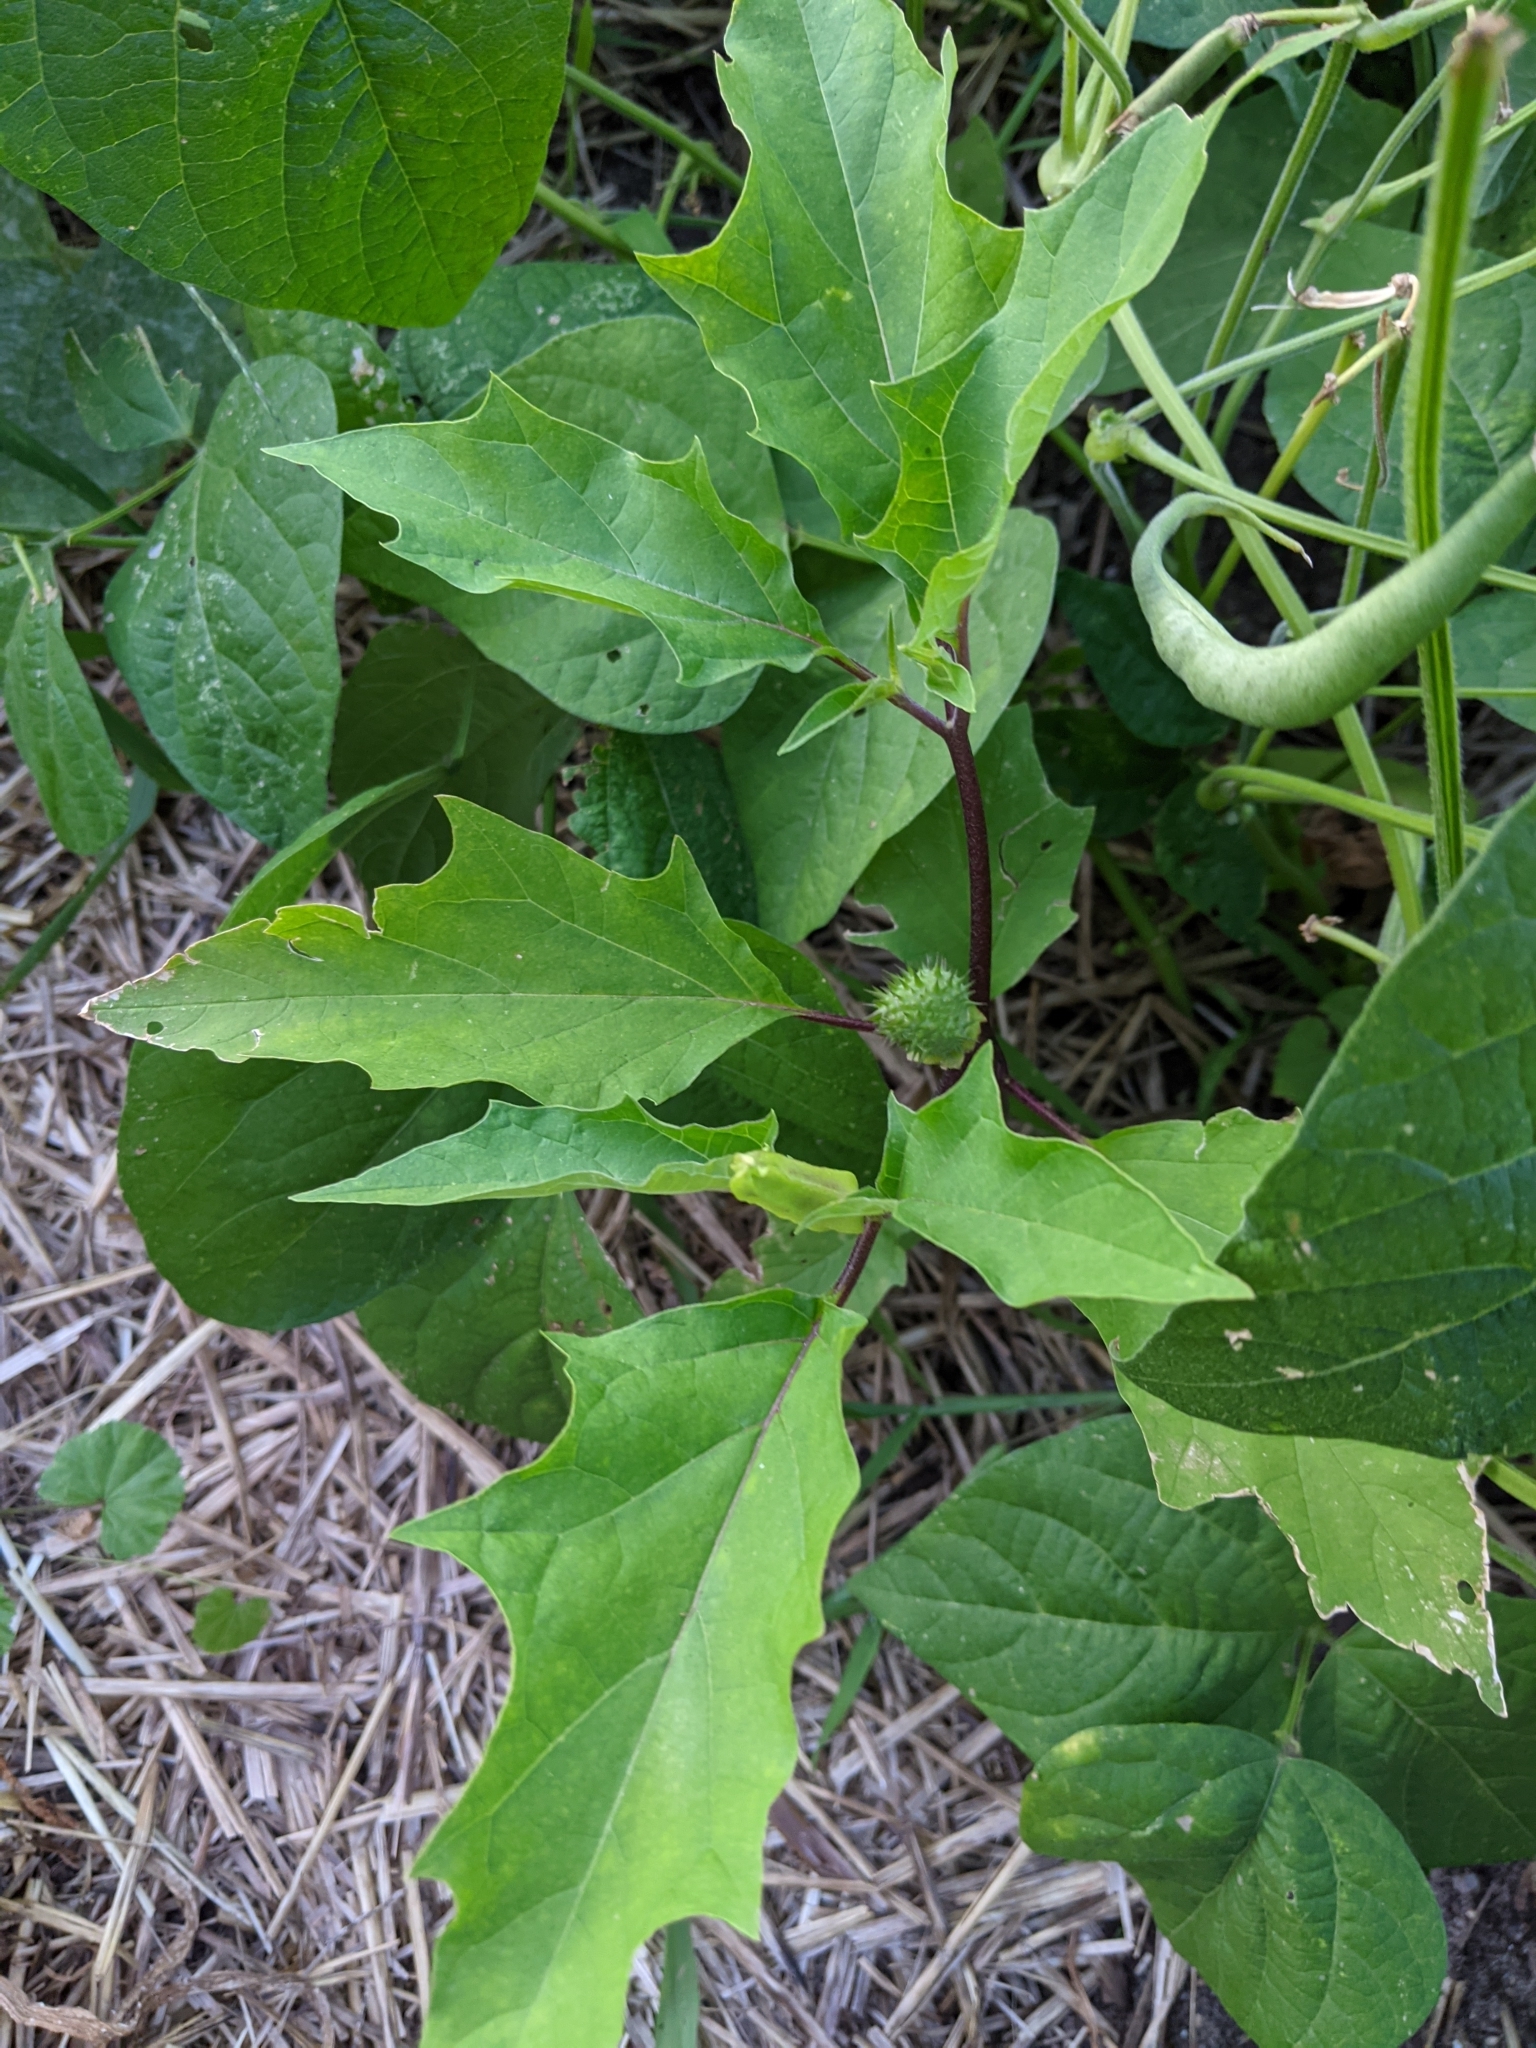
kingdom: Plantae
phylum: Tracheophyta
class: Magnoliopsida
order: Solanales
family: Solanaceae
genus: Datura
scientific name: Datura stramonium
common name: Thorn-apple
